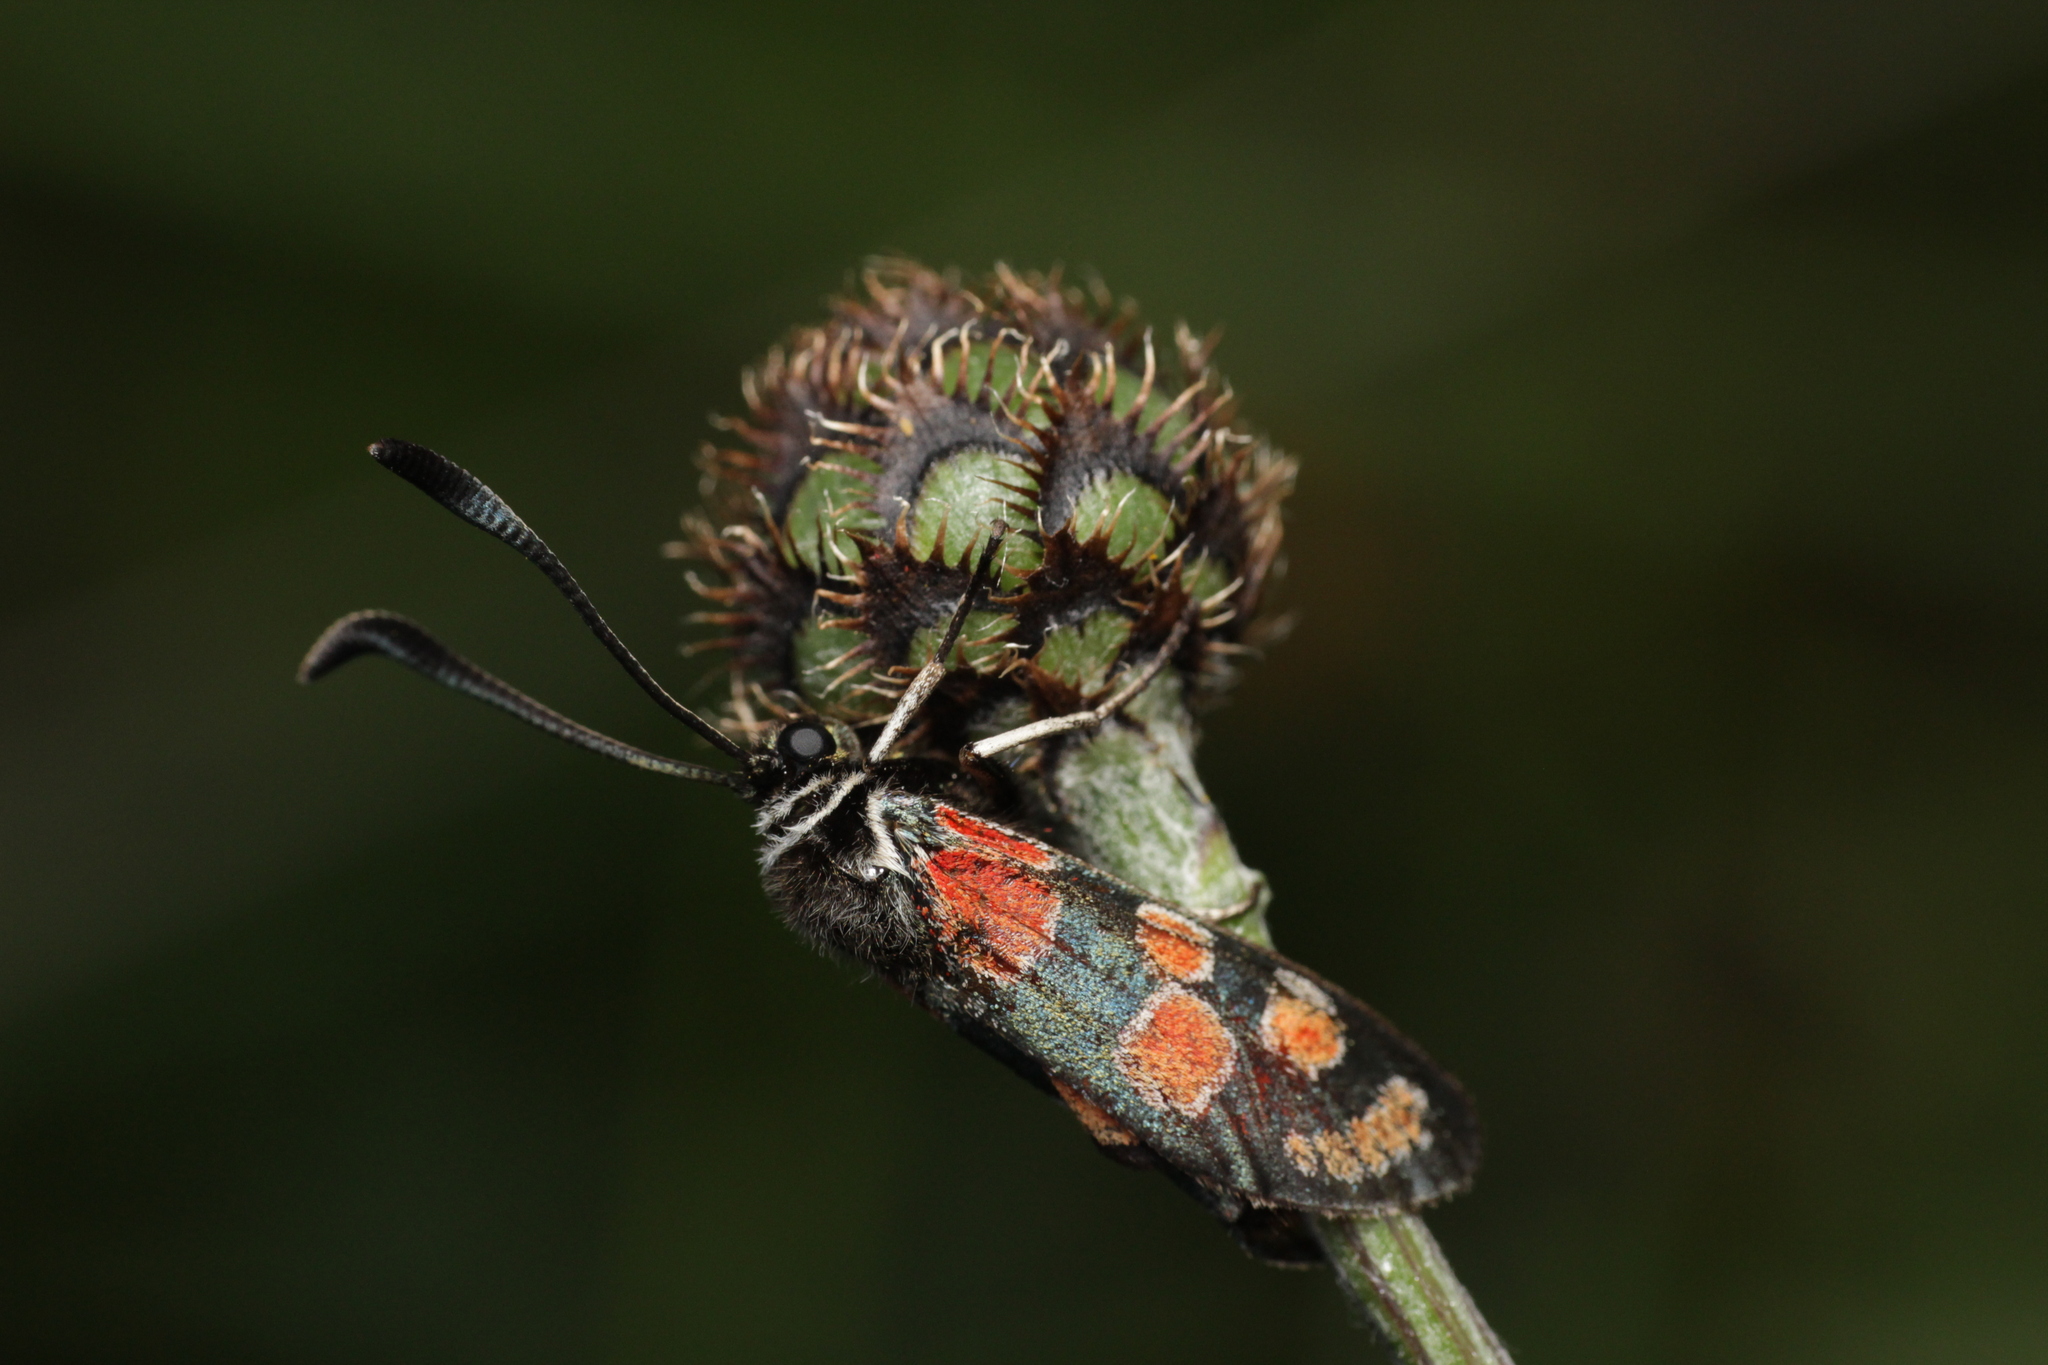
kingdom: Animalia
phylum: Arthropoda
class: Insecta
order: Lepidoptera
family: Zygaenidae
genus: Zygaena
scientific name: Zygaena carniolica
